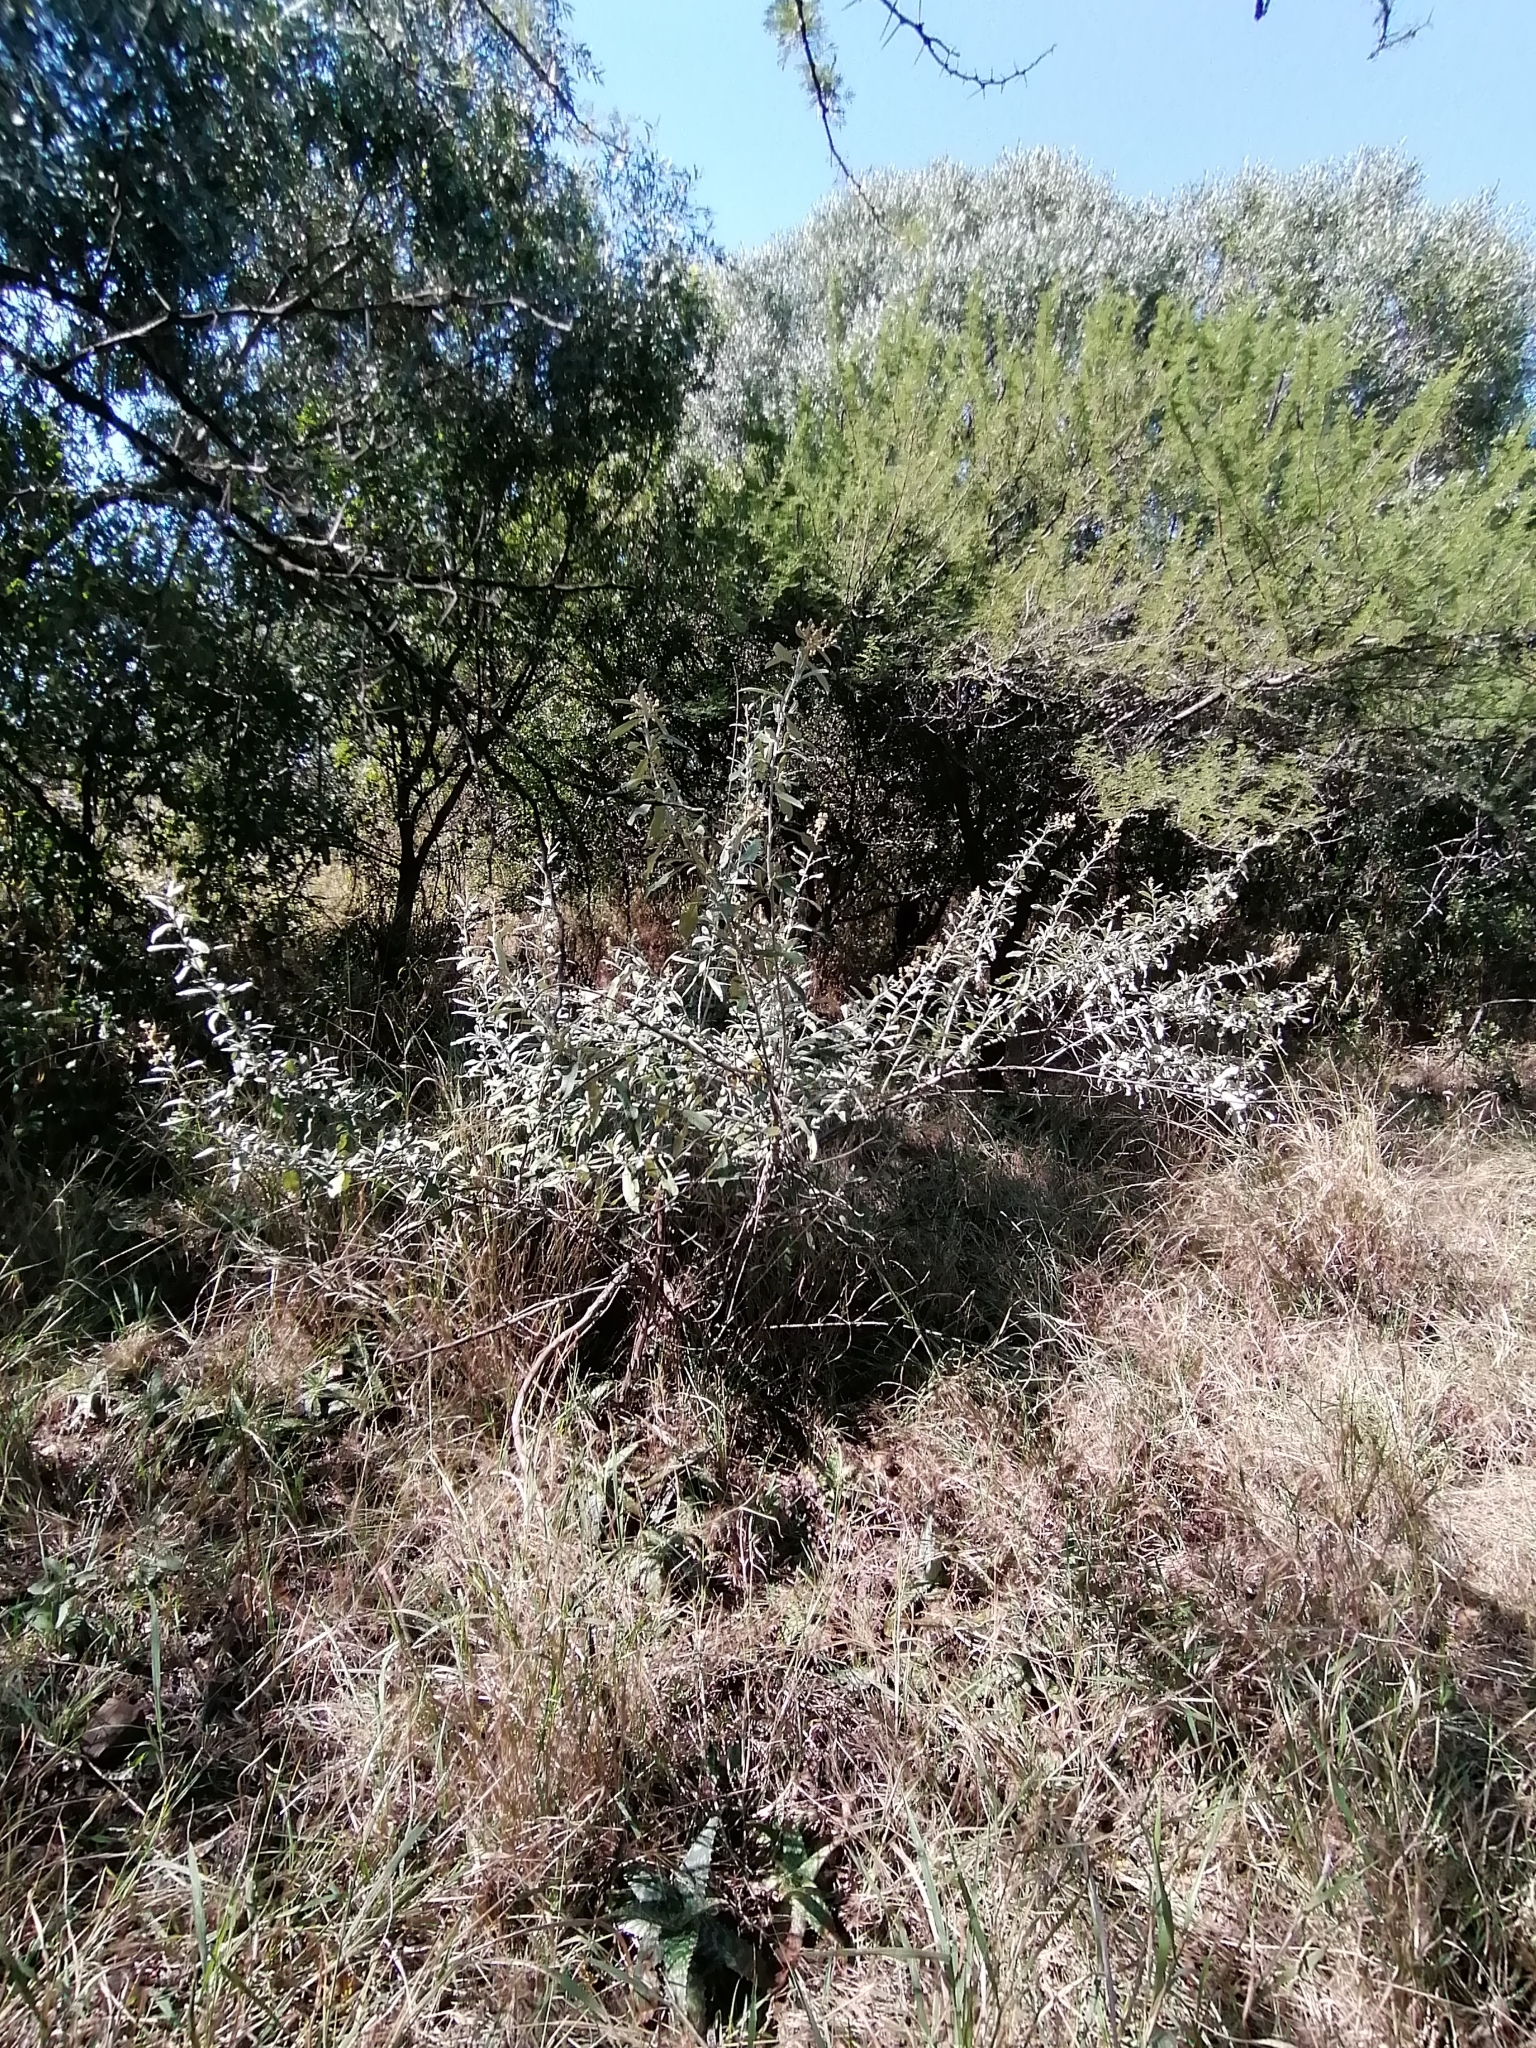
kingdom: Plantae
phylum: Tracheophyta
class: Magnoliopsida
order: Lamiales
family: Scrophulariaceae
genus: Buddleja
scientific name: Buddleja salviifolia
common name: Sagewood
